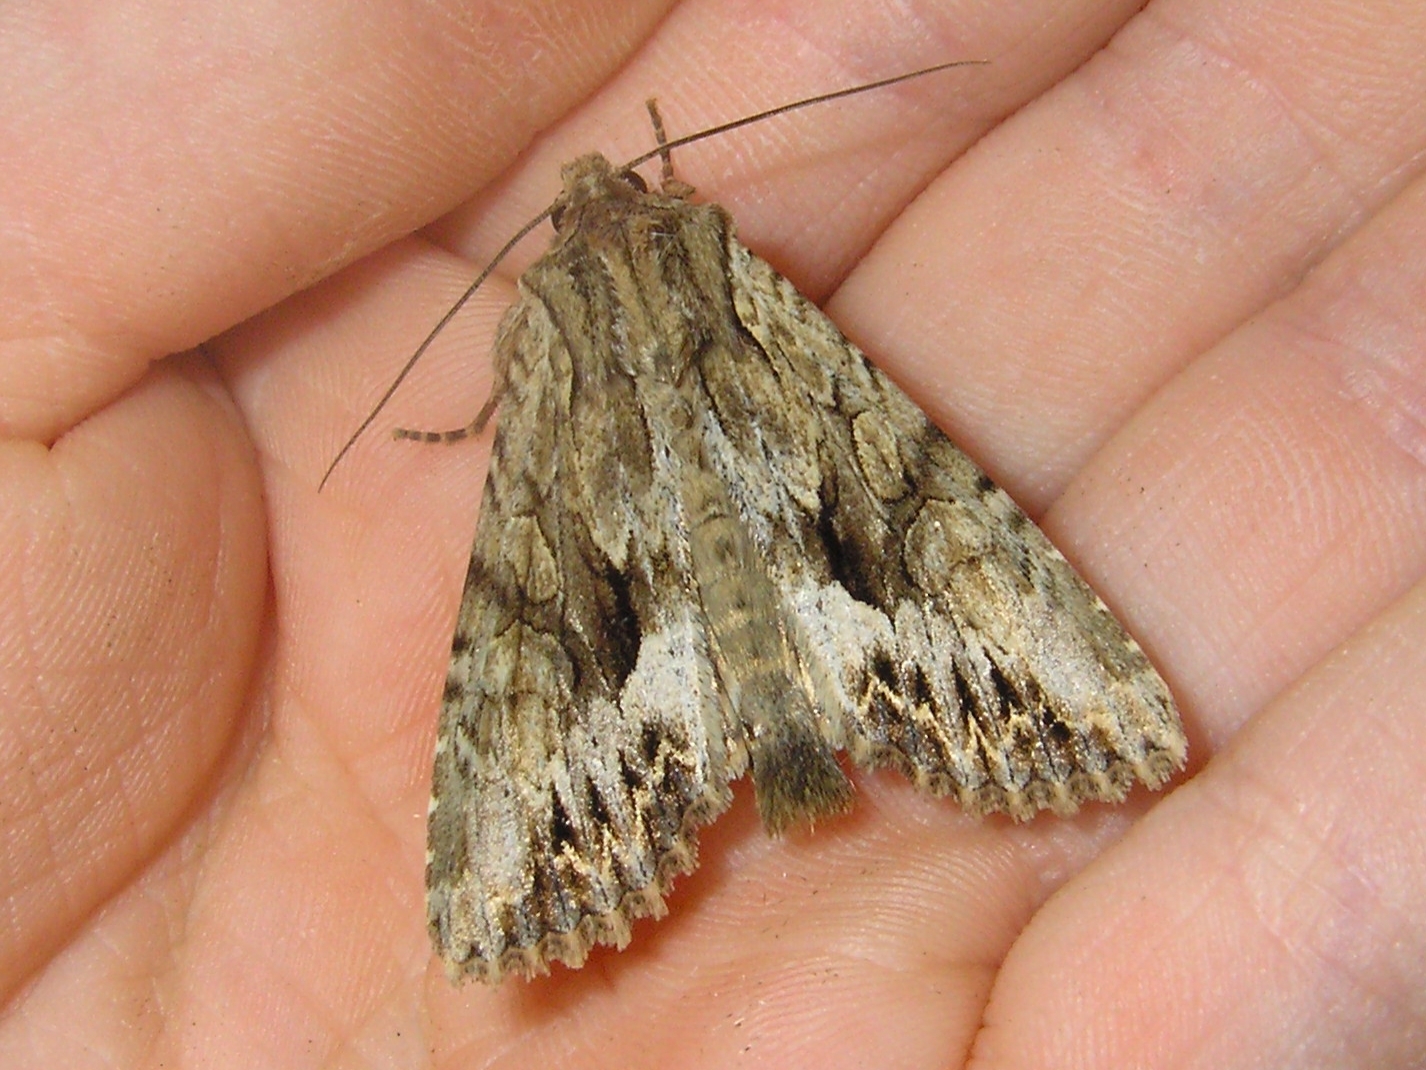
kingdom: Animalia
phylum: Arthropoda
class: Insecta
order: Lepidoptera
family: Noctuidae
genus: Apamea
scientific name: Apamea monoglypha
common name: Dark arches
